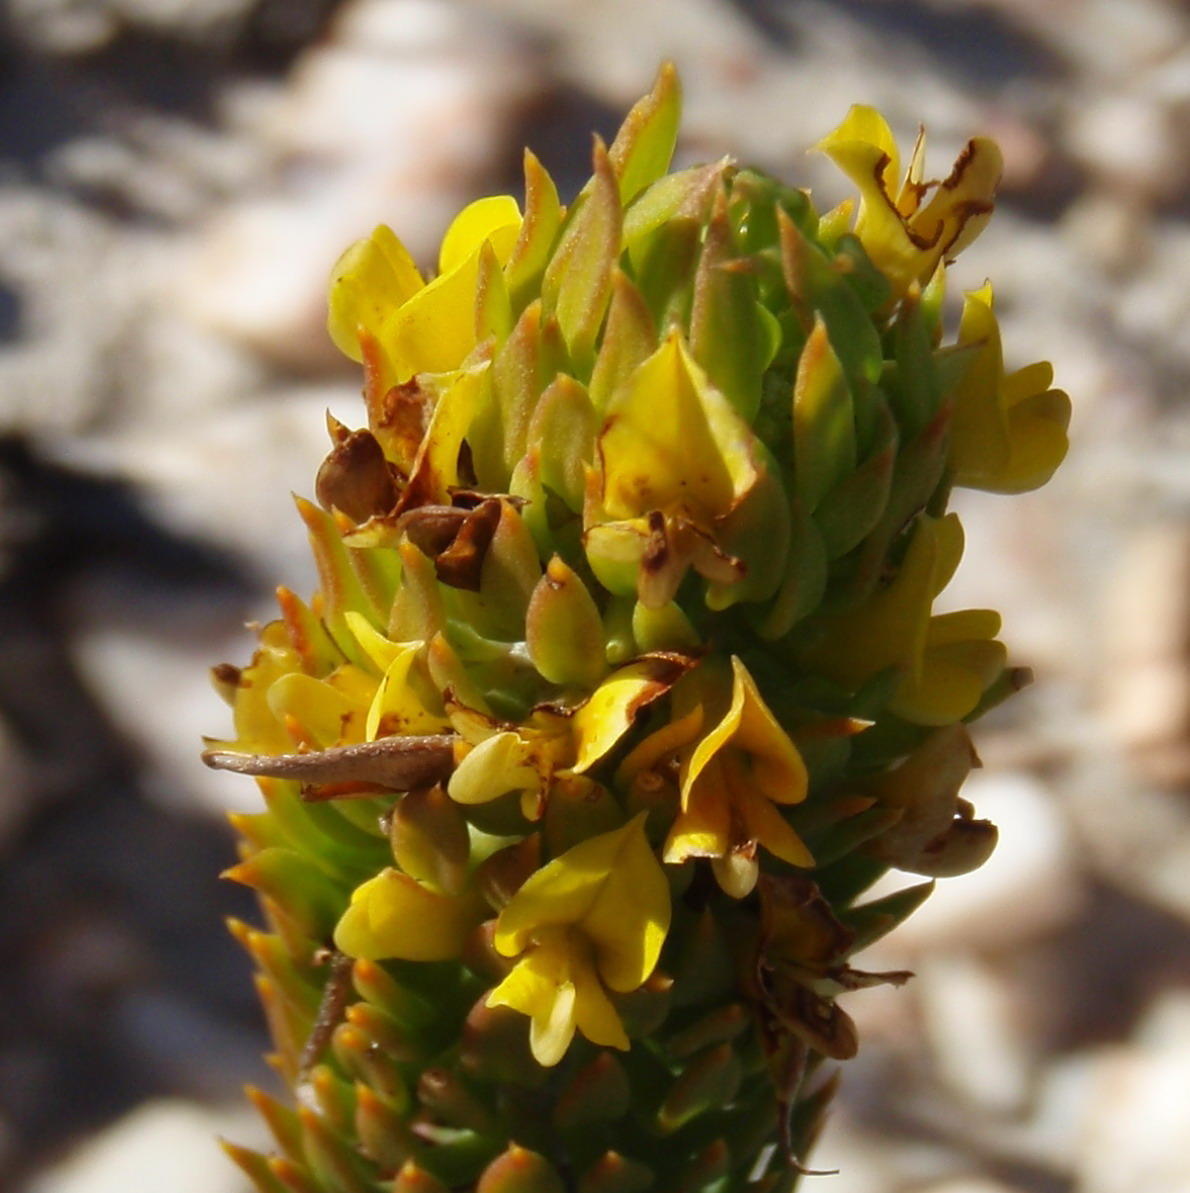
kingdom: Plantae
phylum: Tracheophyta
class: Magnoliopsida
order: Fabales
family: Fabaceae
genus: Aspalathus
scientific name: Aspalathus mundiana
